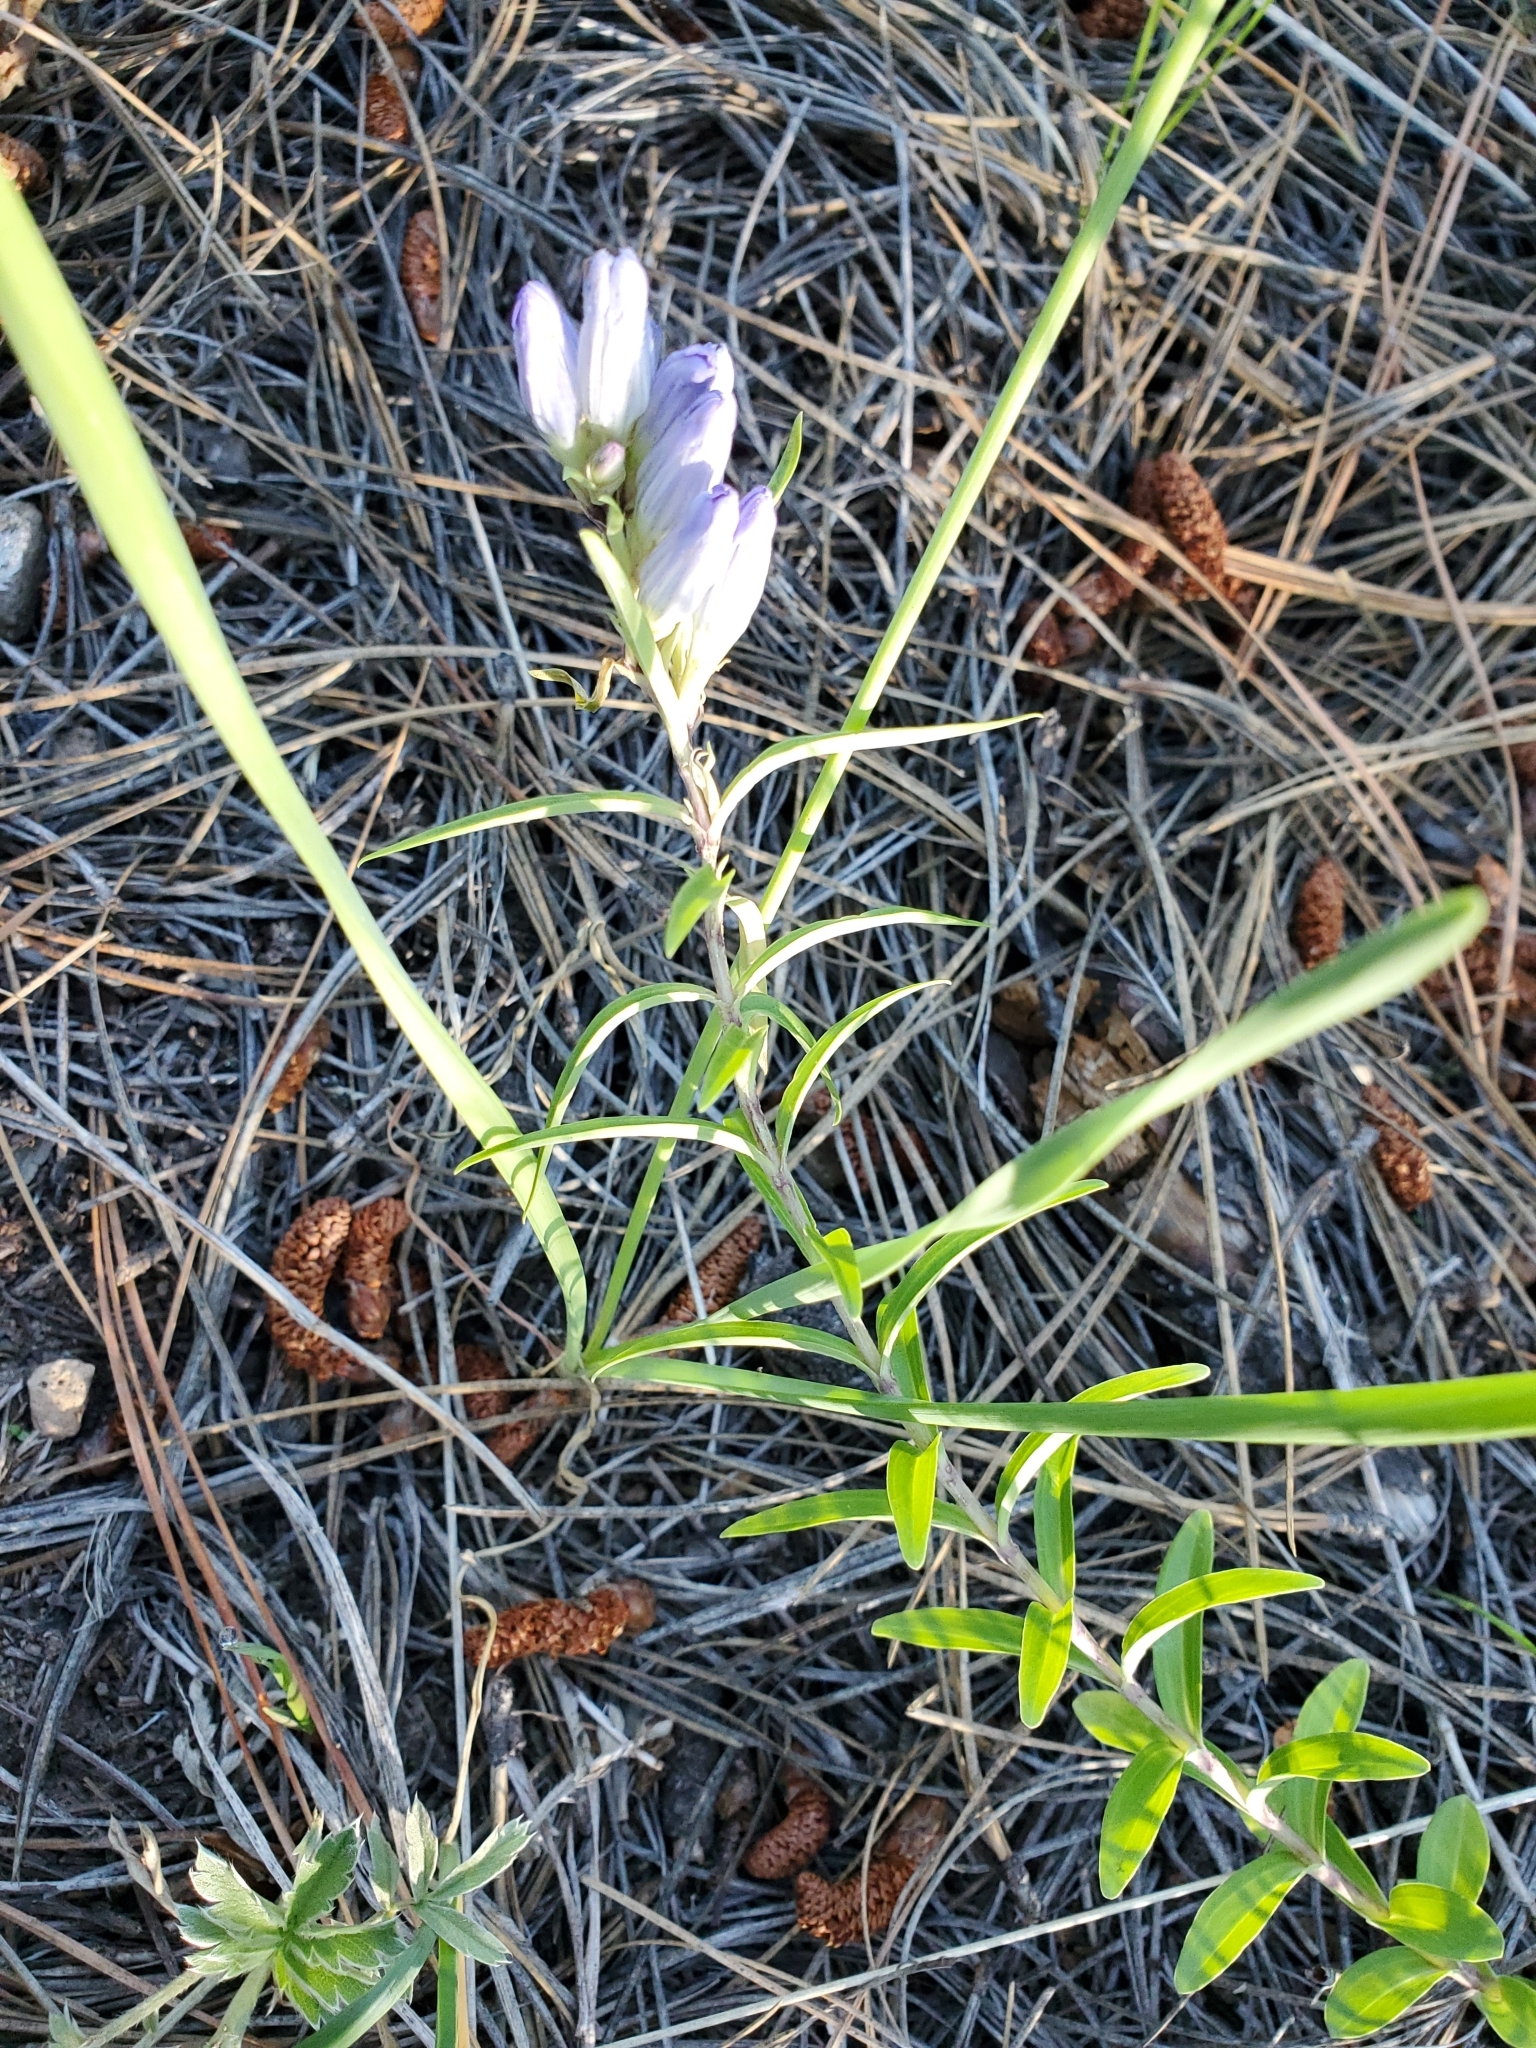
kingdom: Plantae
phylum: Tracheophyta
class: Magnoliopsida
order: Gentianales
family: Gentianaceae
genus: Gentiana
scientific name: Gentiana affinis
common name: Rocky mountain gentian
